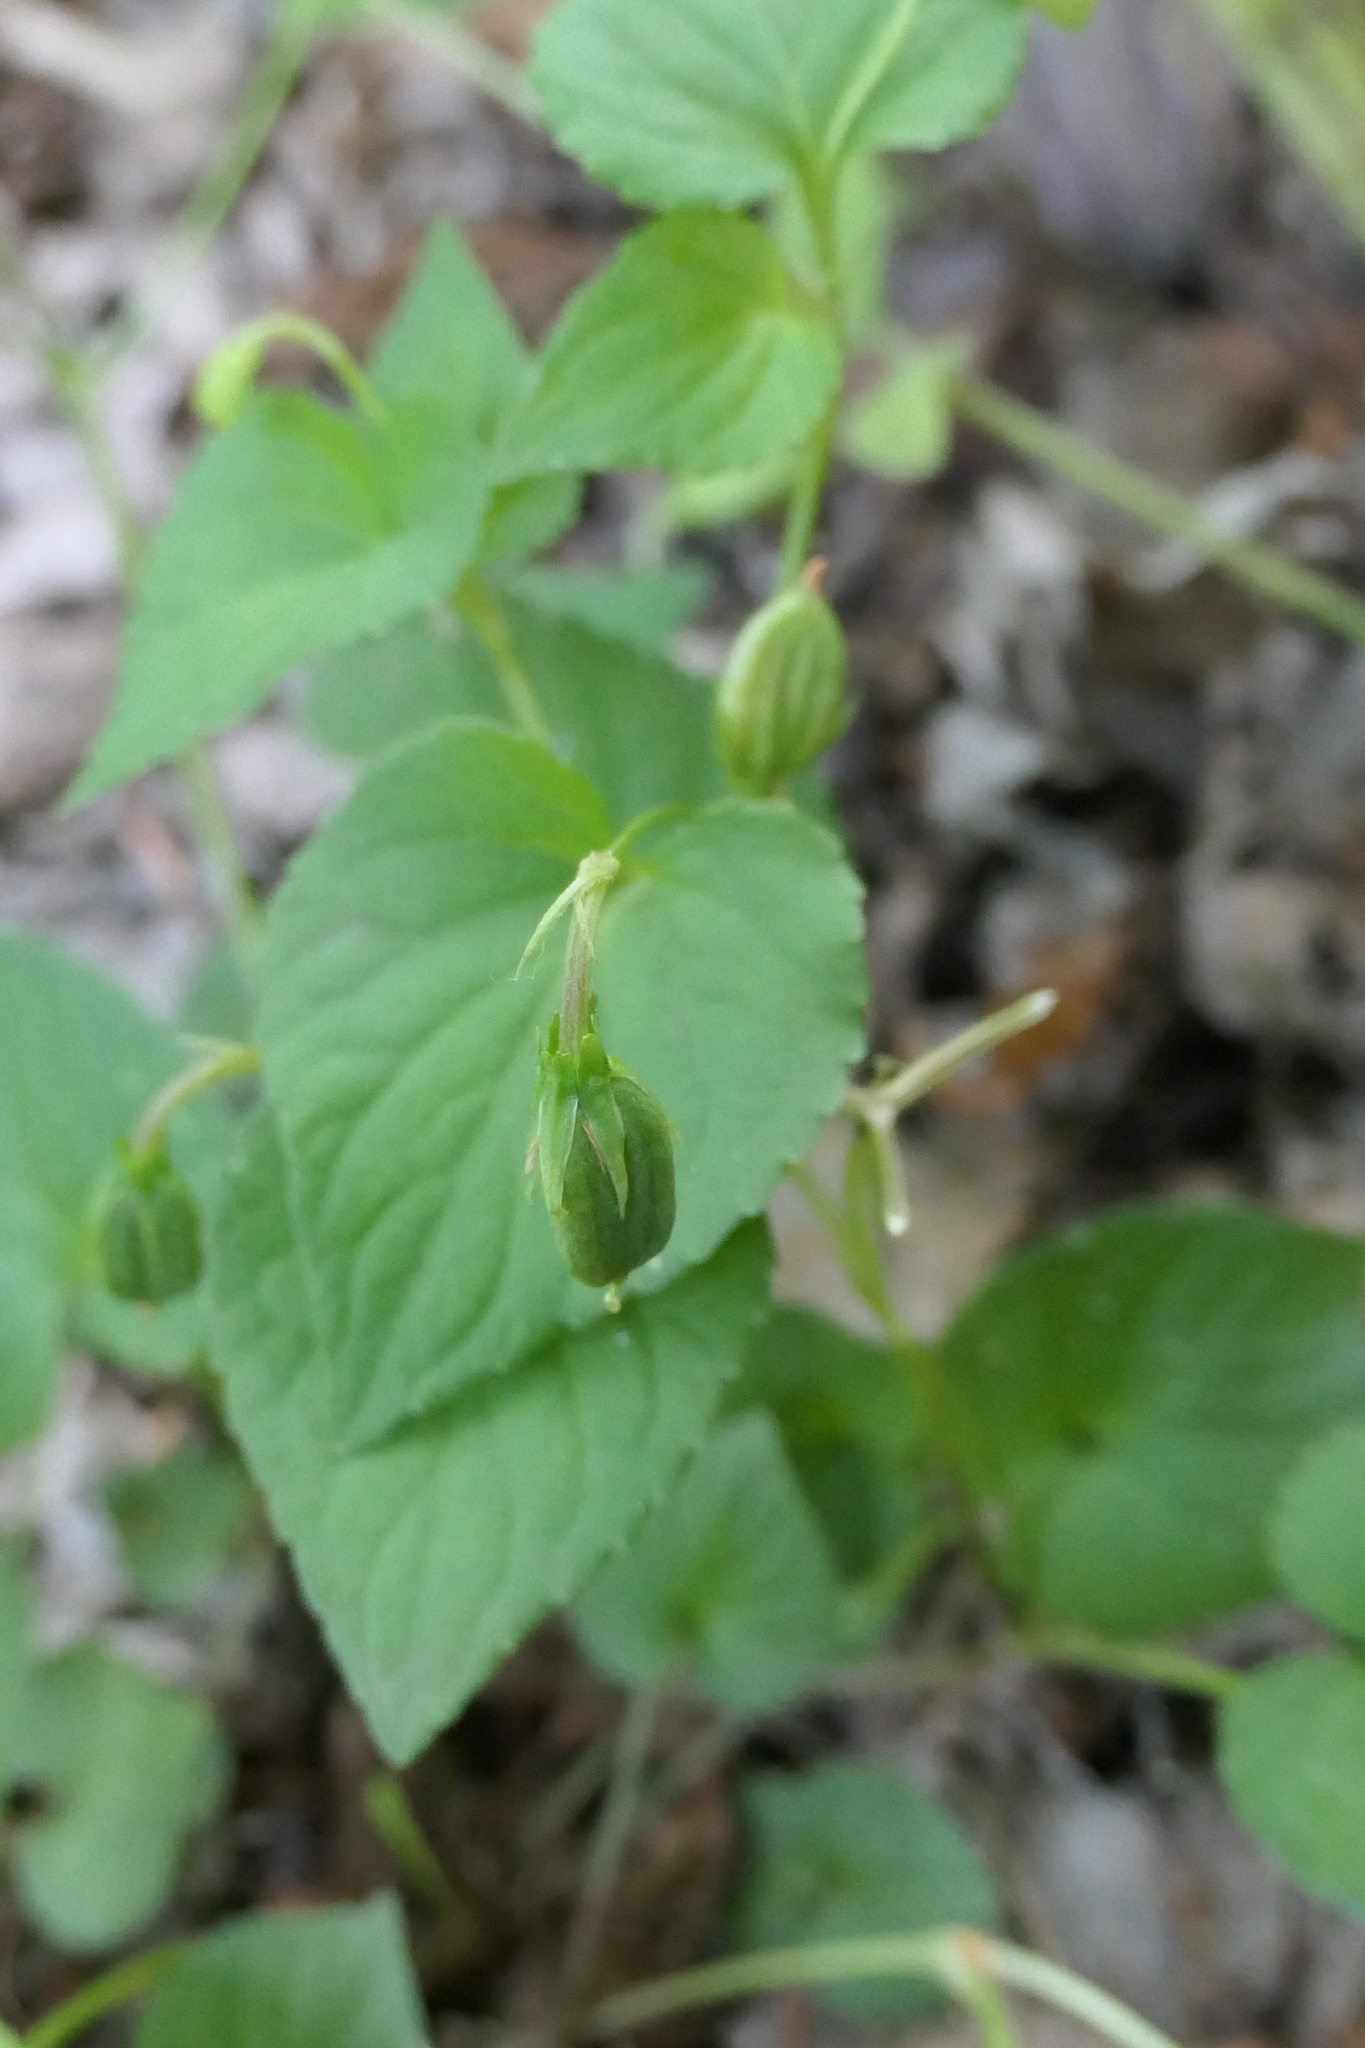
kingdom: Plantae
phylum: Tracheophyta
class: Magnoliopsida
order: Malpighiales
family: Violaceae
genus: Viola
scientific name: Viola riviniana
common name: Common dog-violet
